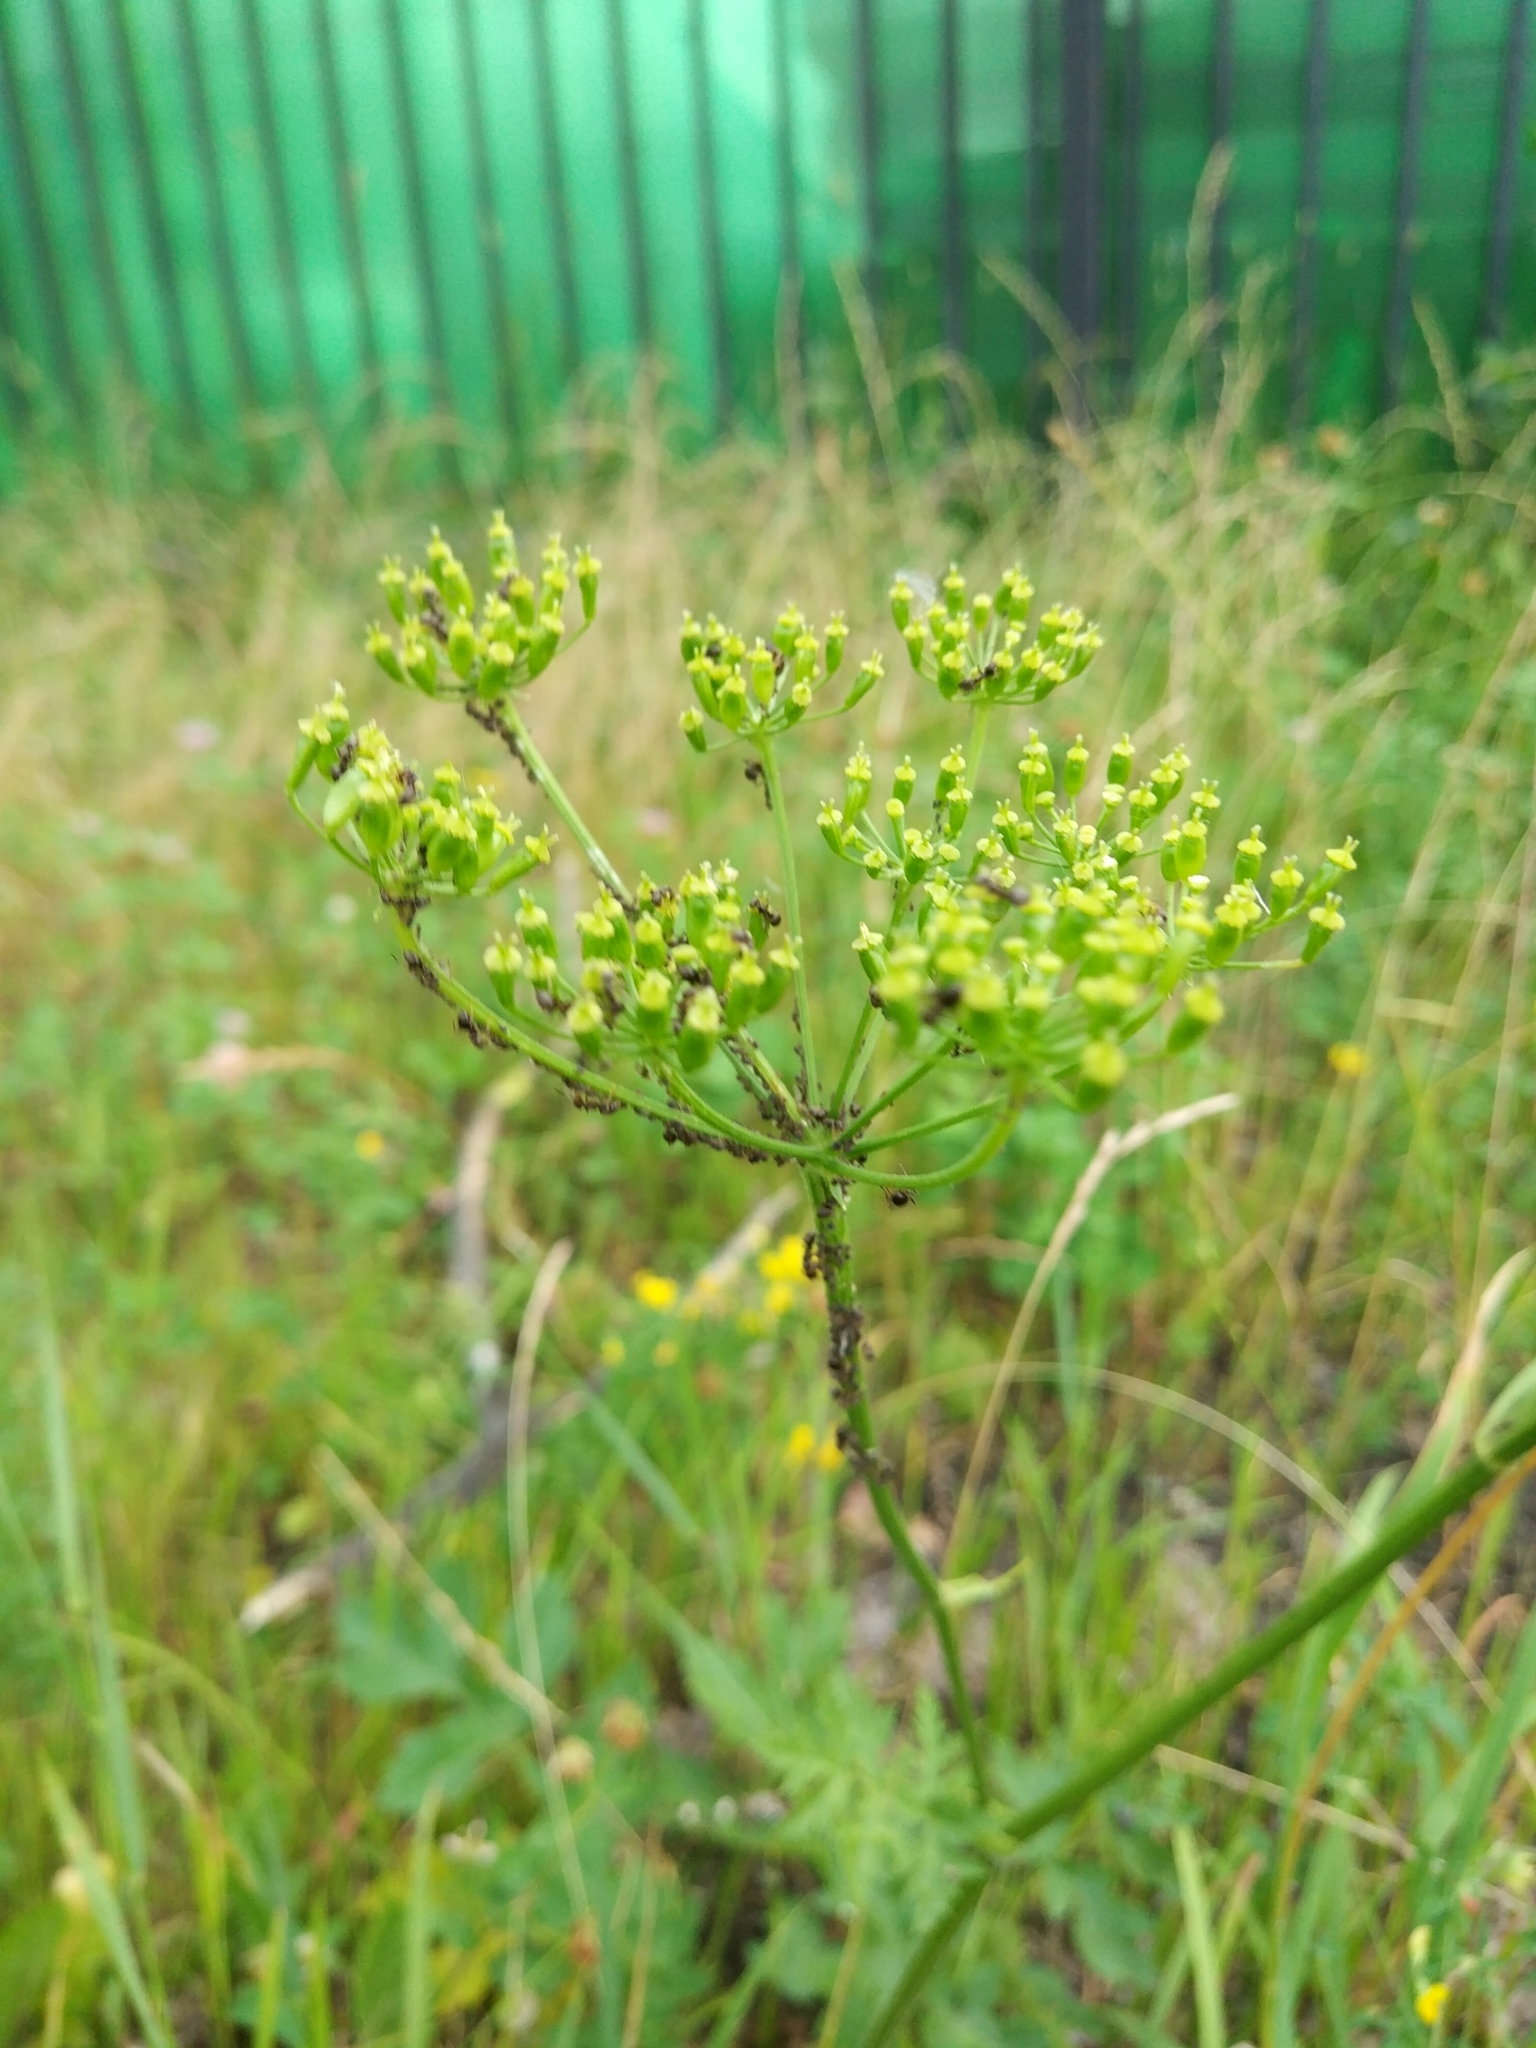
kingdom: Plantae
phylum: Tracheophyta
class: Magnoliopsida
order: Apiales
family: Apiaceae
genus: Heracleum
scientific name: Heracleum sphondylium
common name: Hogweed
